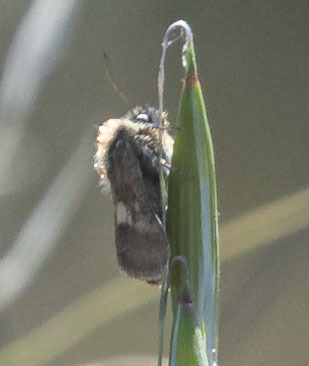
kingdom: Animalia
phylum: Arthropoda
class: Insecta
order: Lepidoptera
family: Noctuidae
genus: Heliolonche
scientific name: Heliolonche joaquinensis
